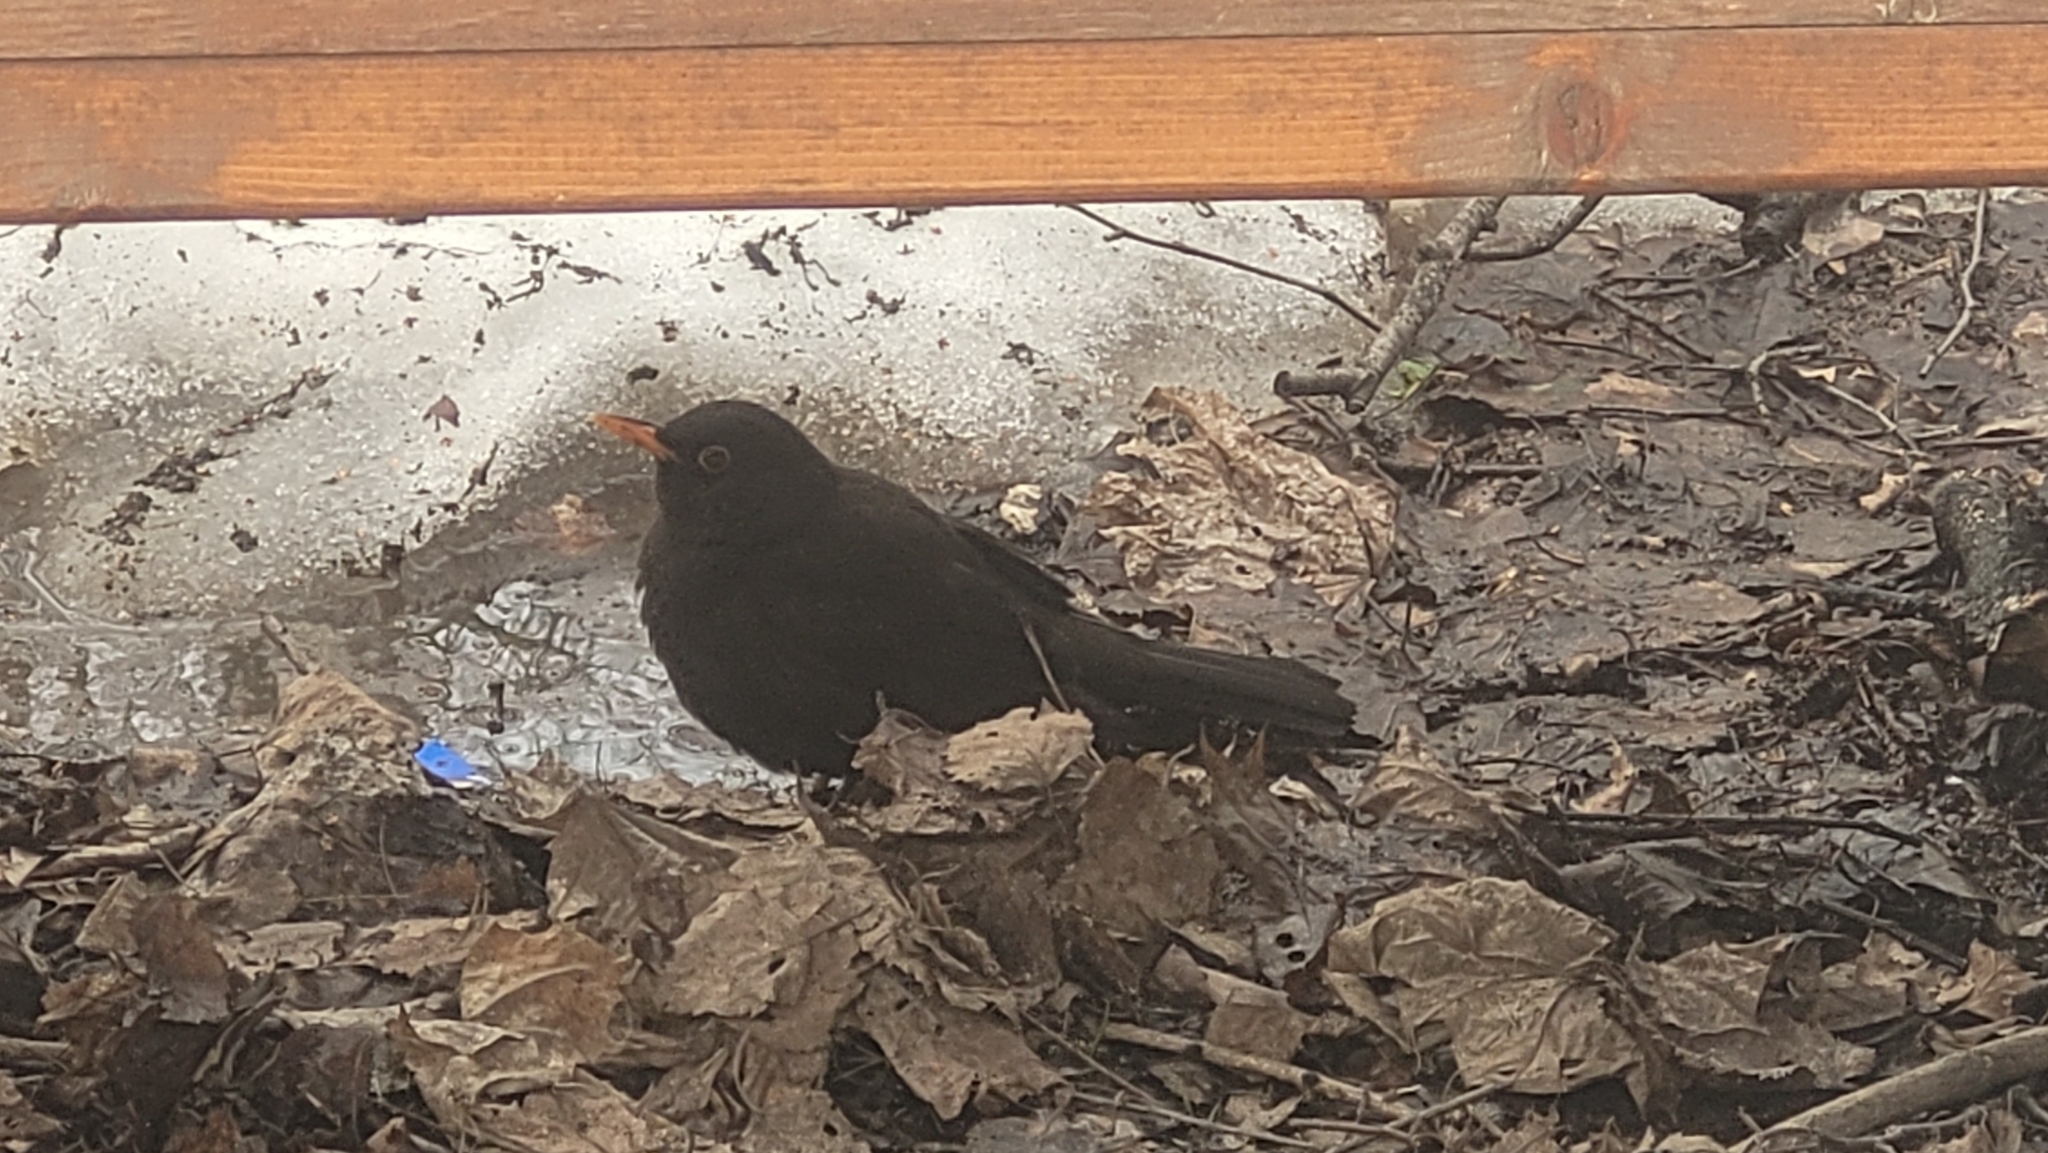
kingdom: Animalia
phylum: Chordata
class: Aves
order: Passeriformes
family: Turdidae
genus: Turdus
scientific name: Turdus merula
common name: Common blackbird
